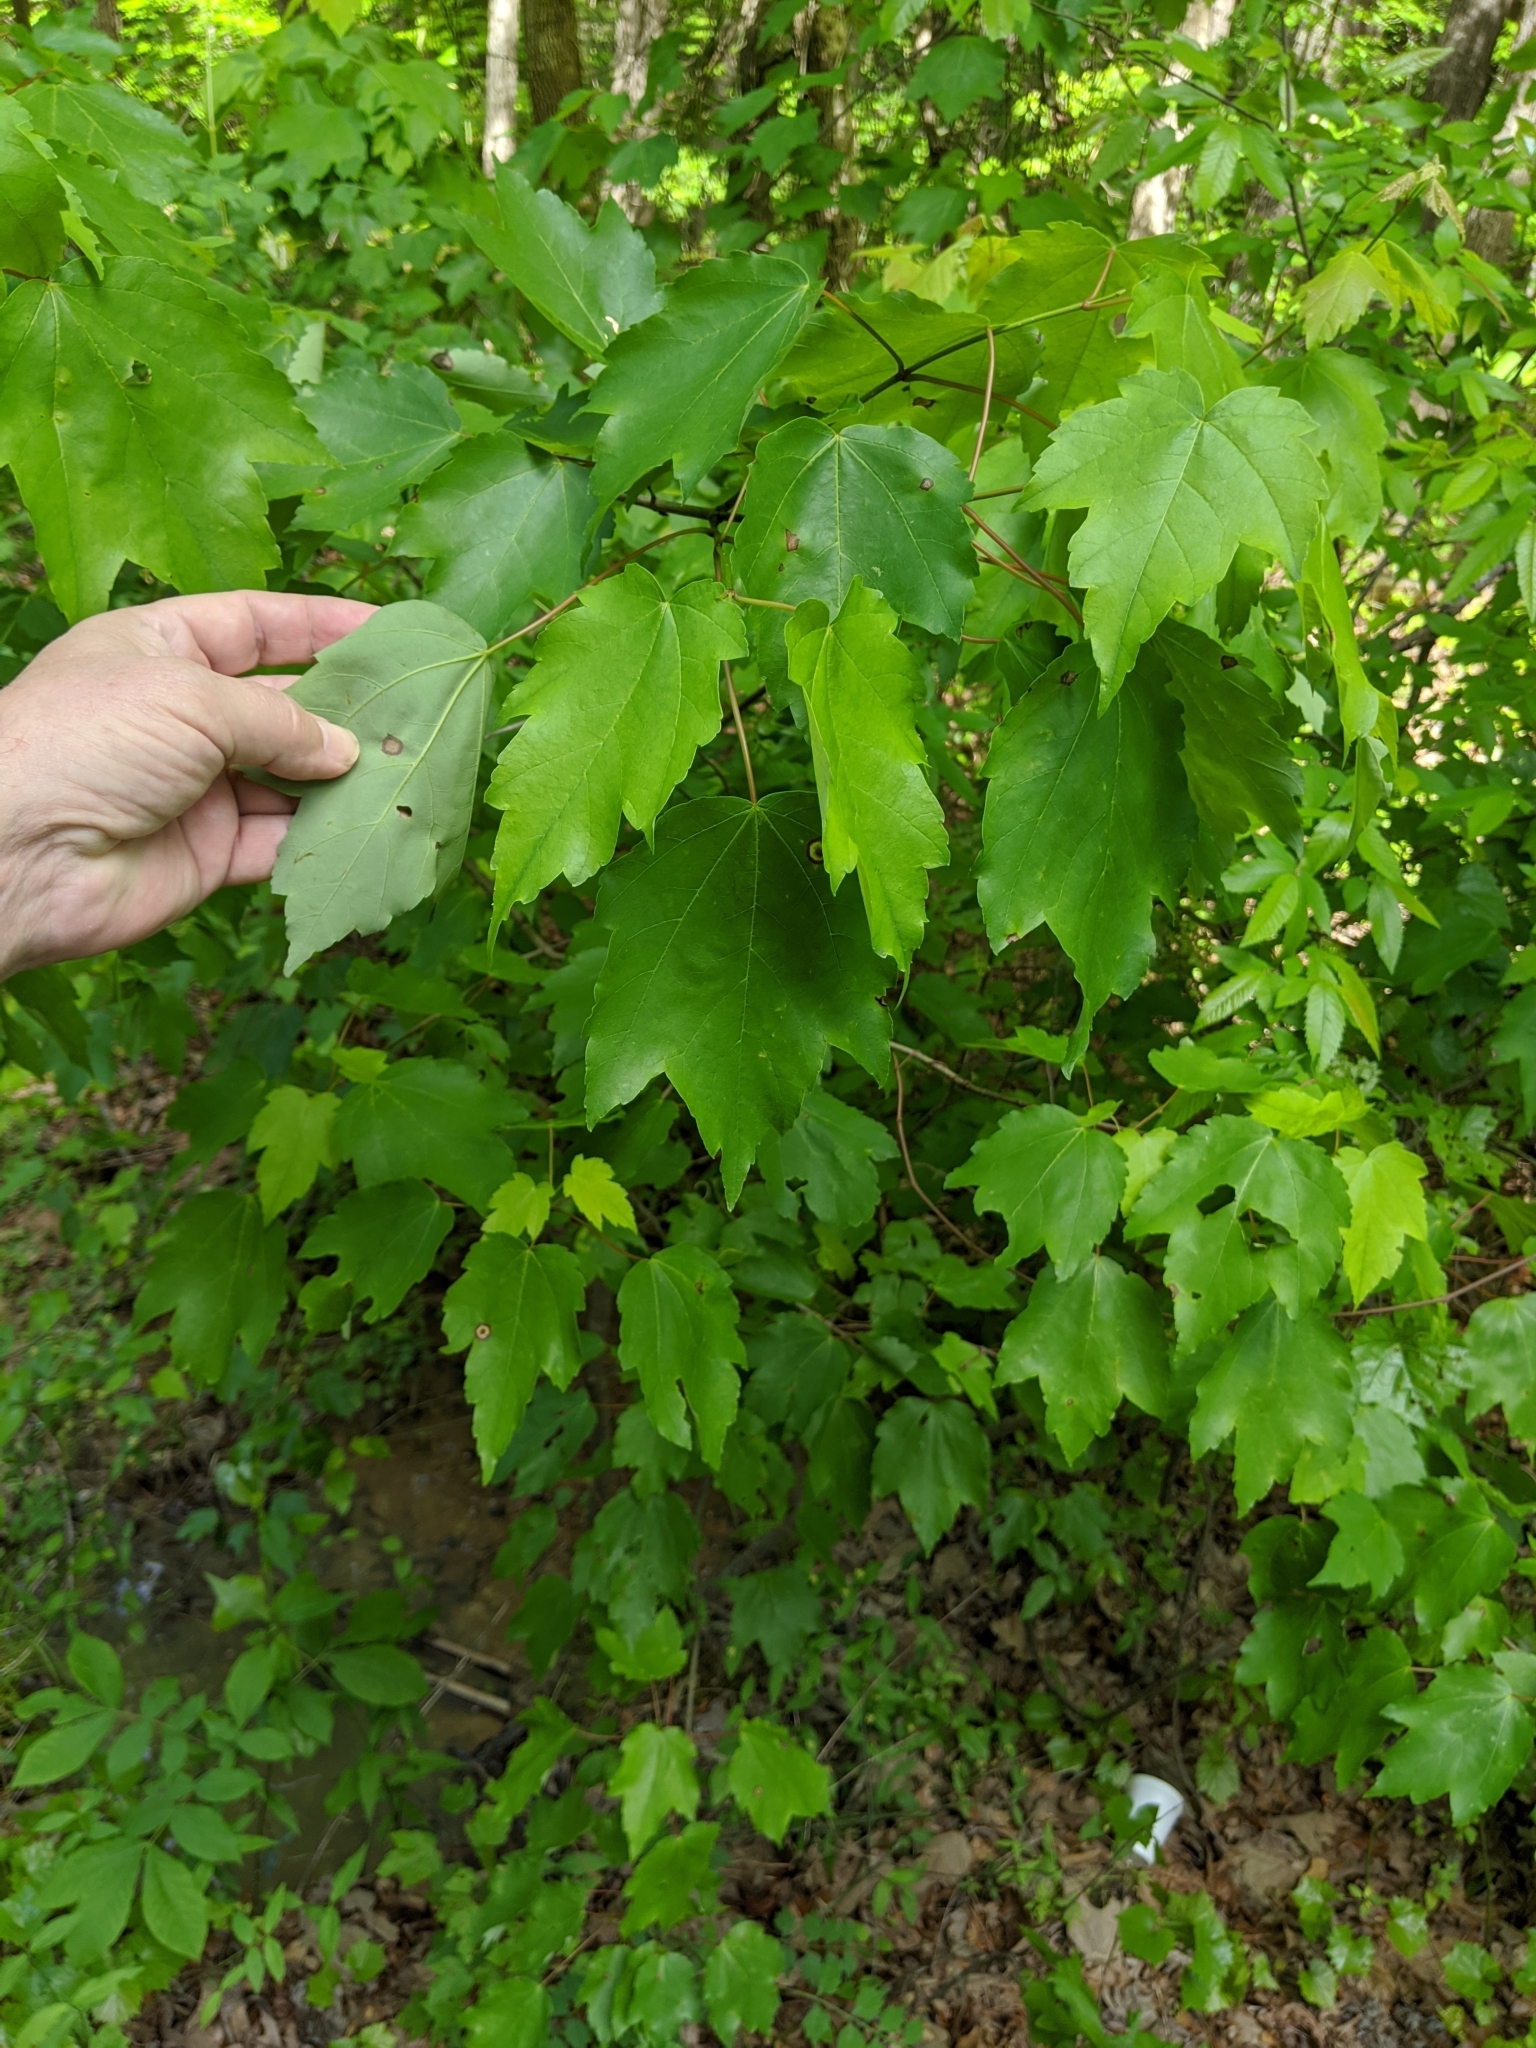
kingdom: Plantae
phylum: Tracheophyta
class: Magnoliopsida
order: Sapindales
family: Sapindaceae
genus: Acer
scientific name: Acer rubrum
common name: Red maple
